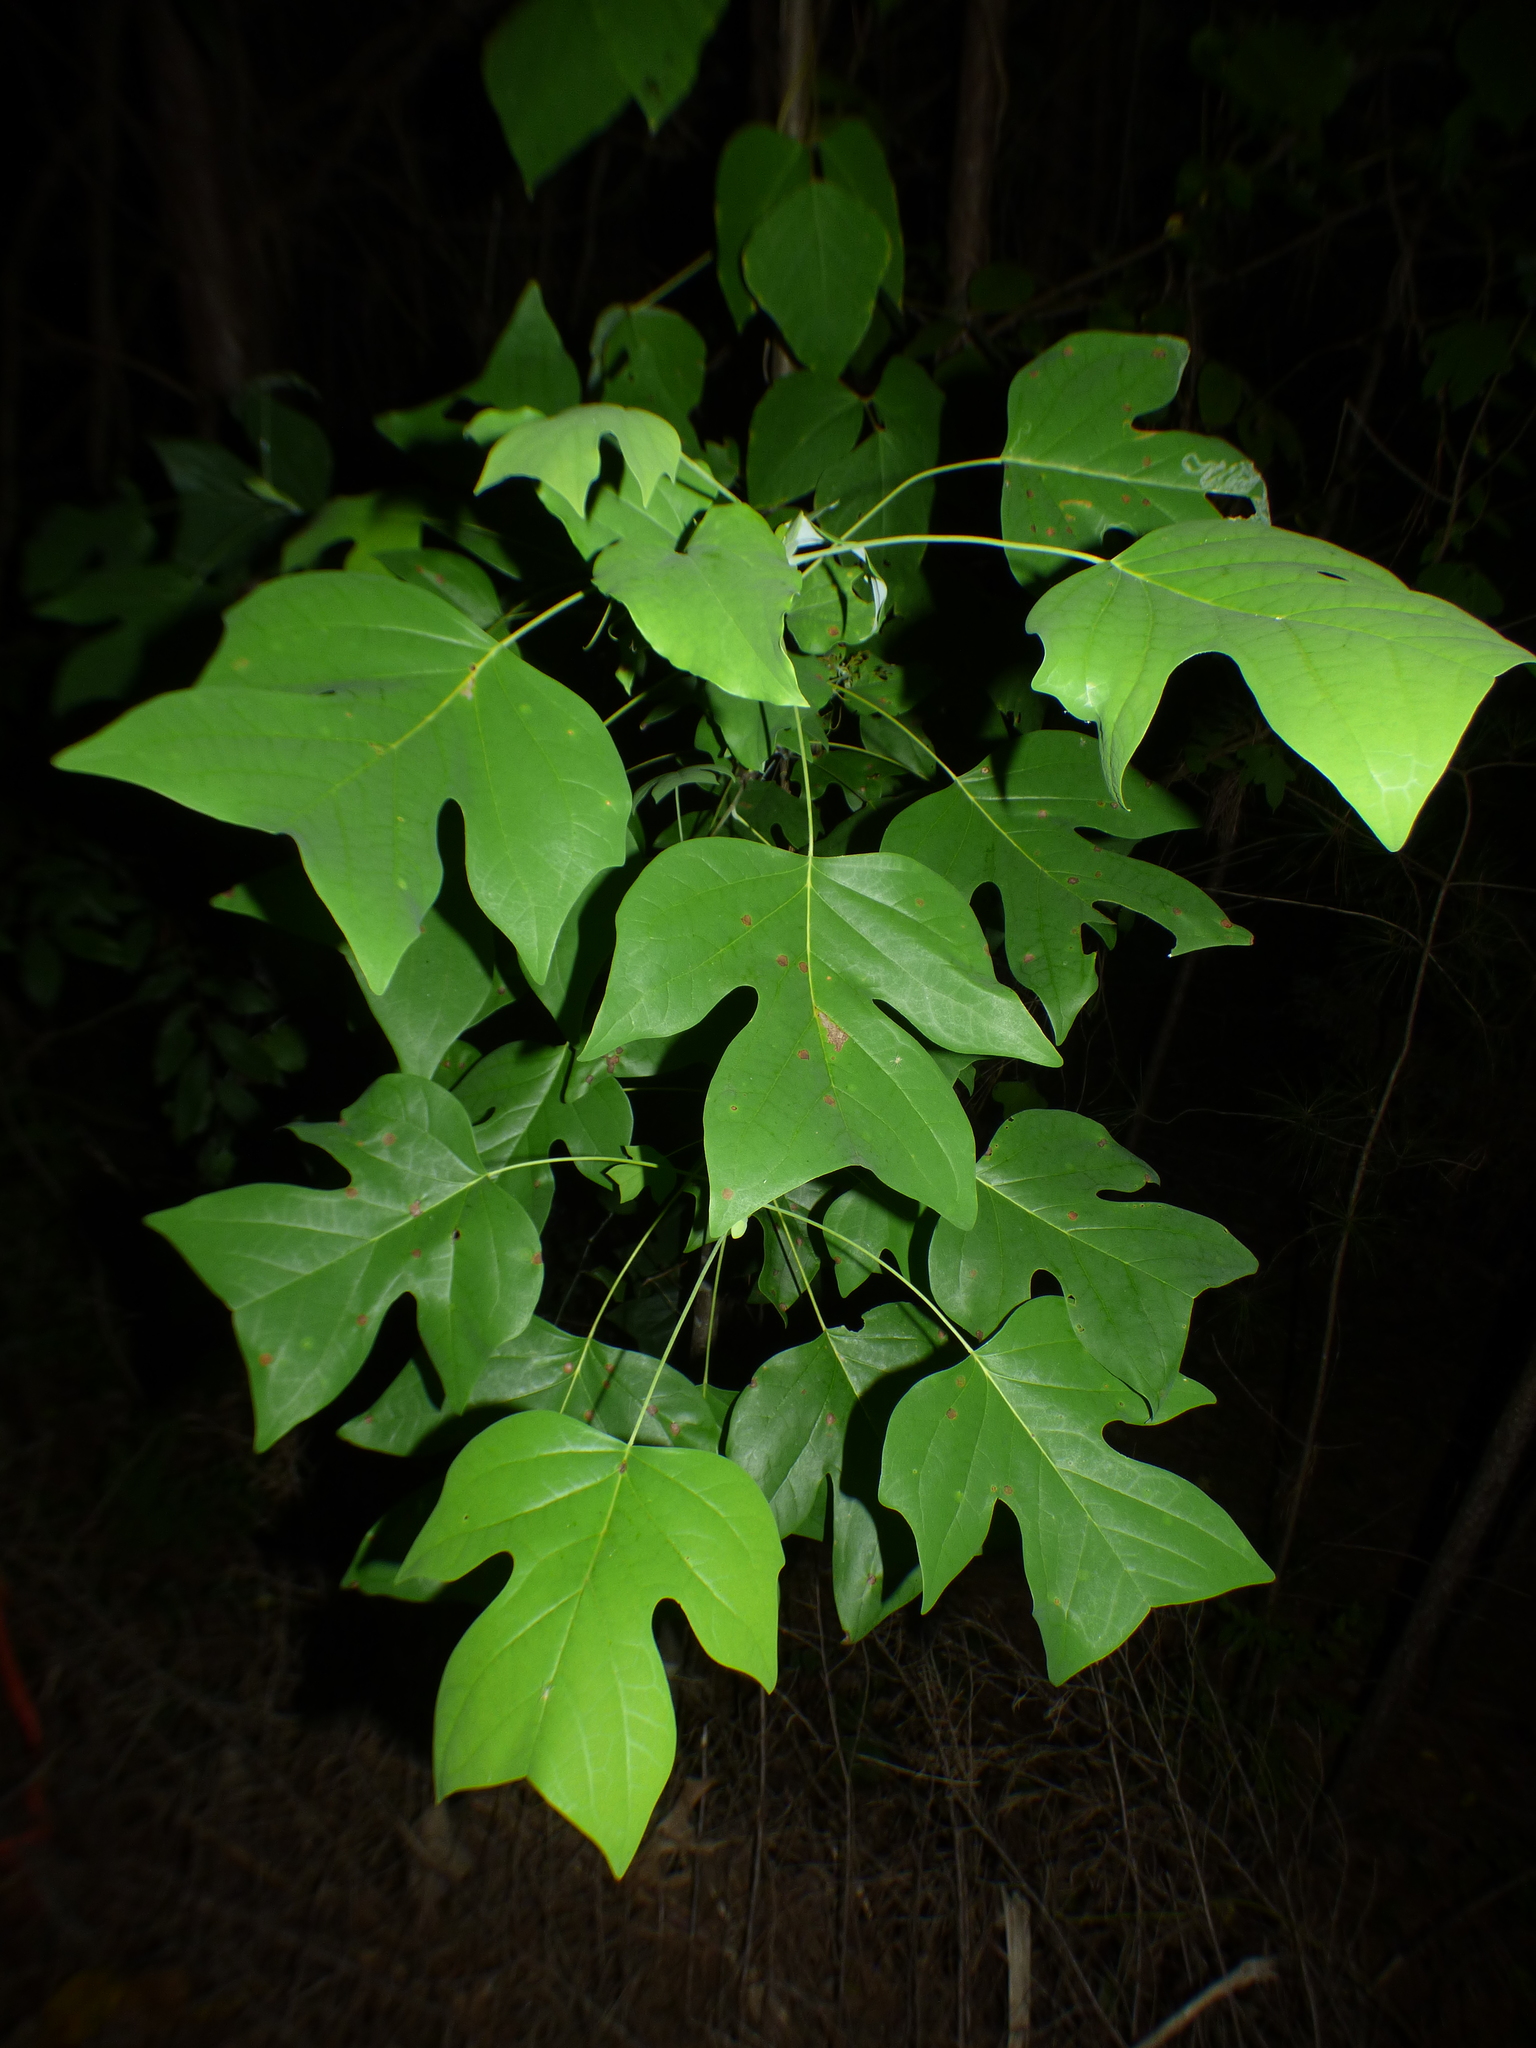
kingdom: Plantae
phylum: Tracheophyta
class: Magnoliopsida
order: Magnoliales
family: Magnoliaceae
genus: Liriodendron
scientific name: Liriodendron tulipifera
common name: Tulip tree
